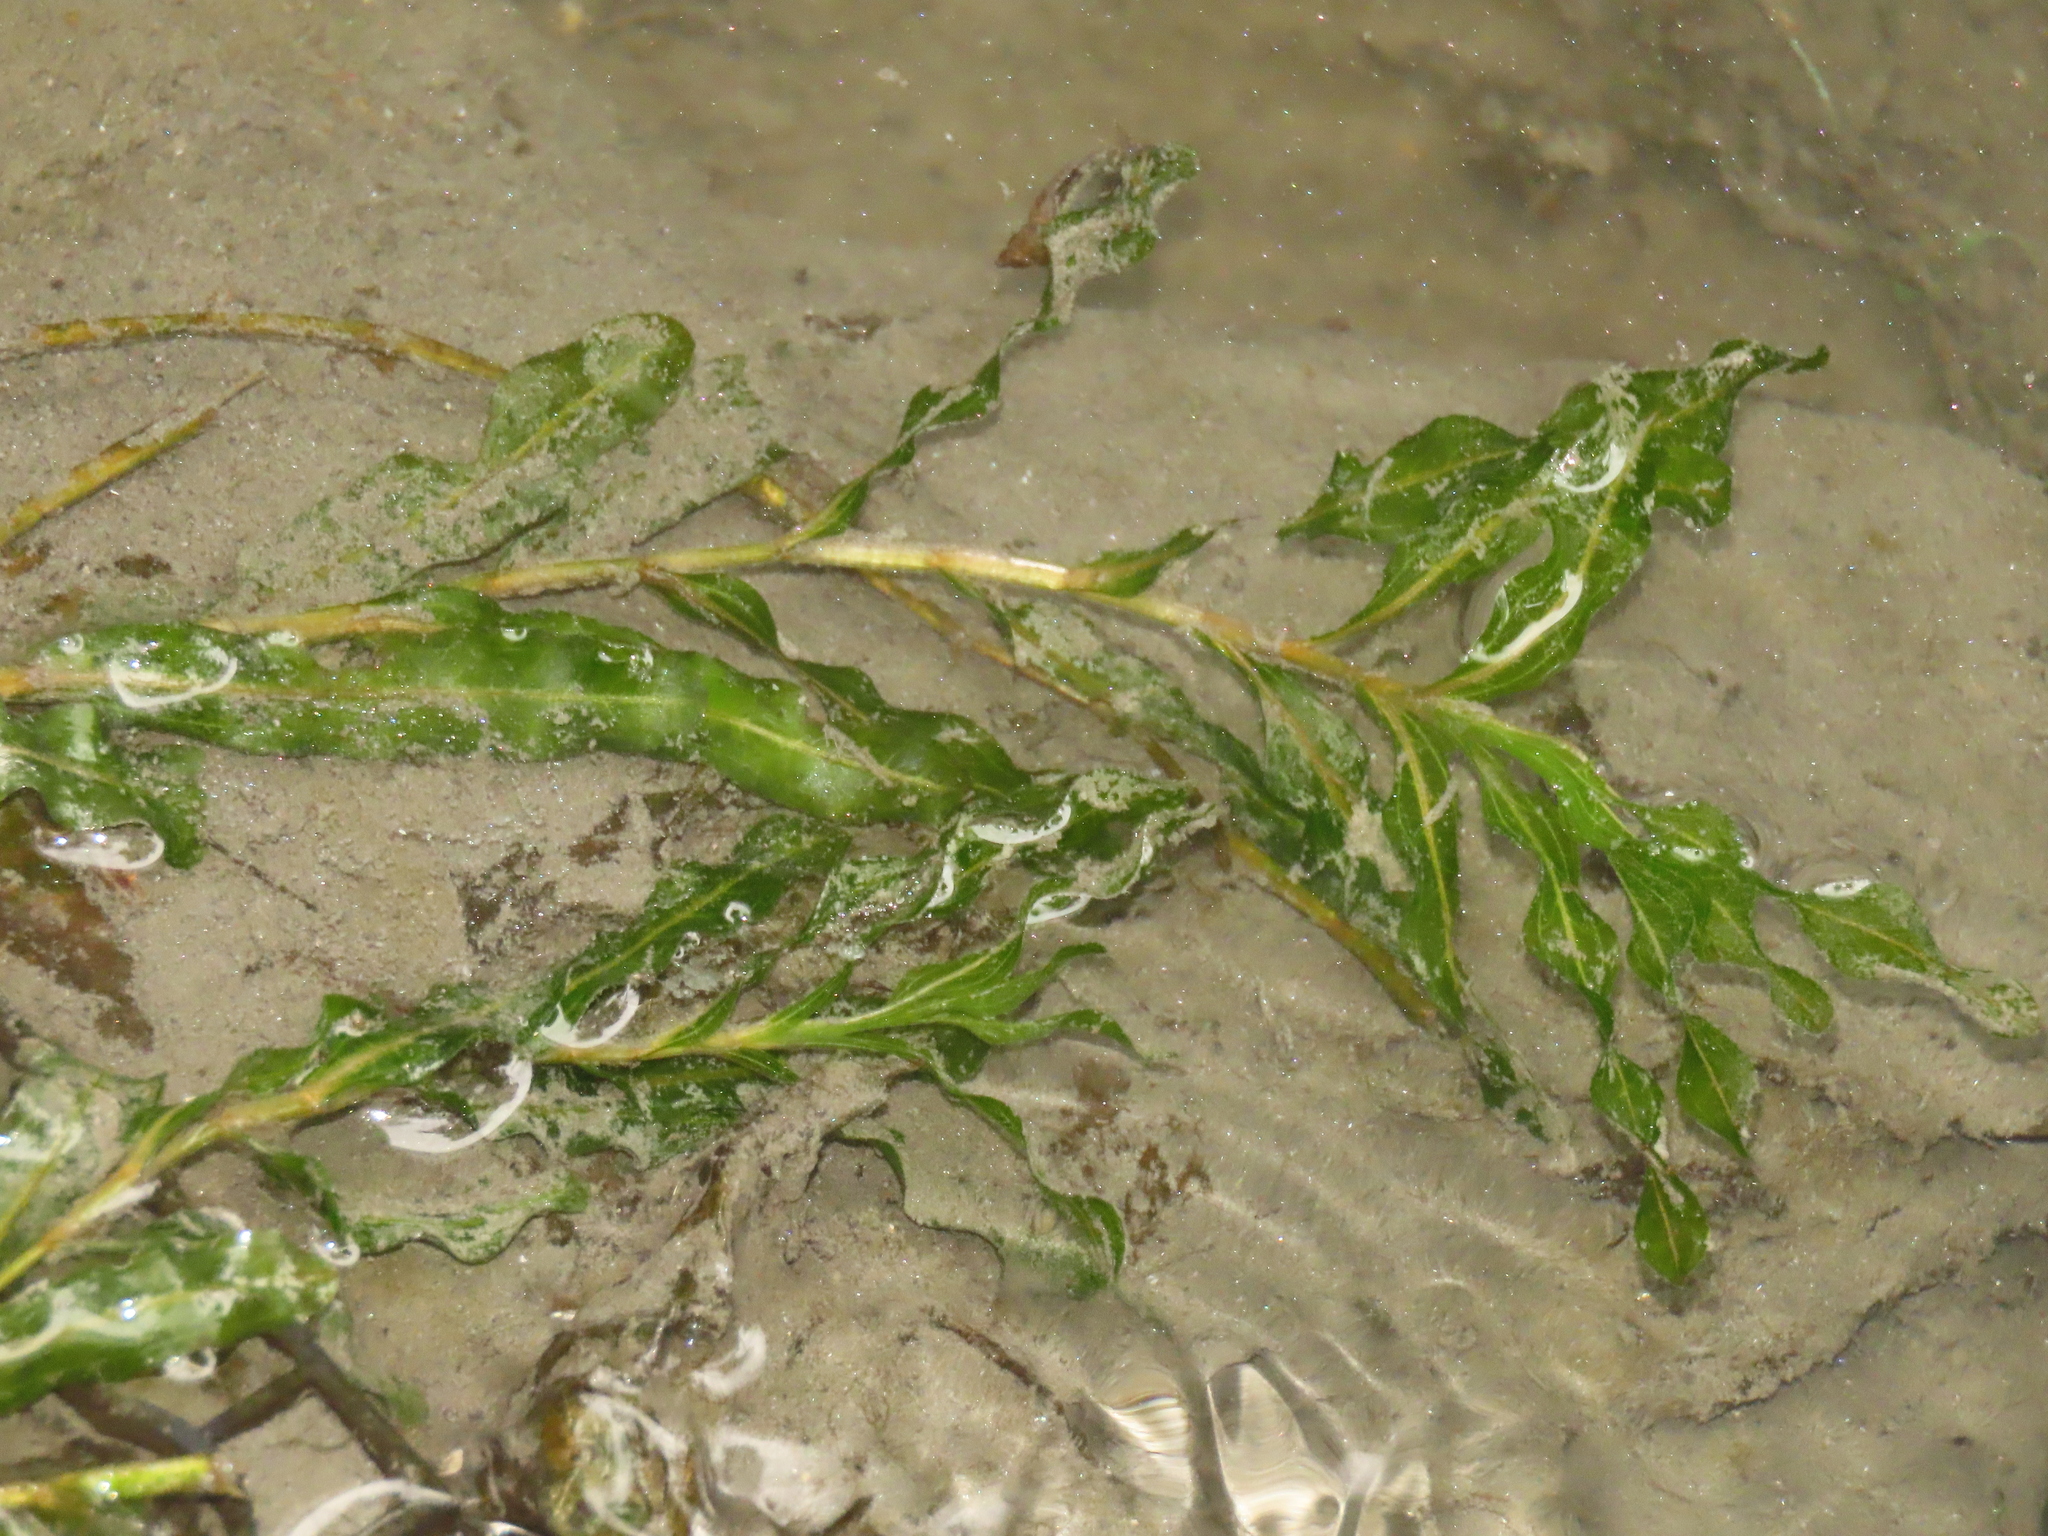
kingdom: Plantae
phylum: Tracheophyta
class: Liliopsida
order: Alismatales
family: Potamogetonaceae
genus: Potamogeton
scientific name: Potamogeton crispus
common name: Curled pondweed
